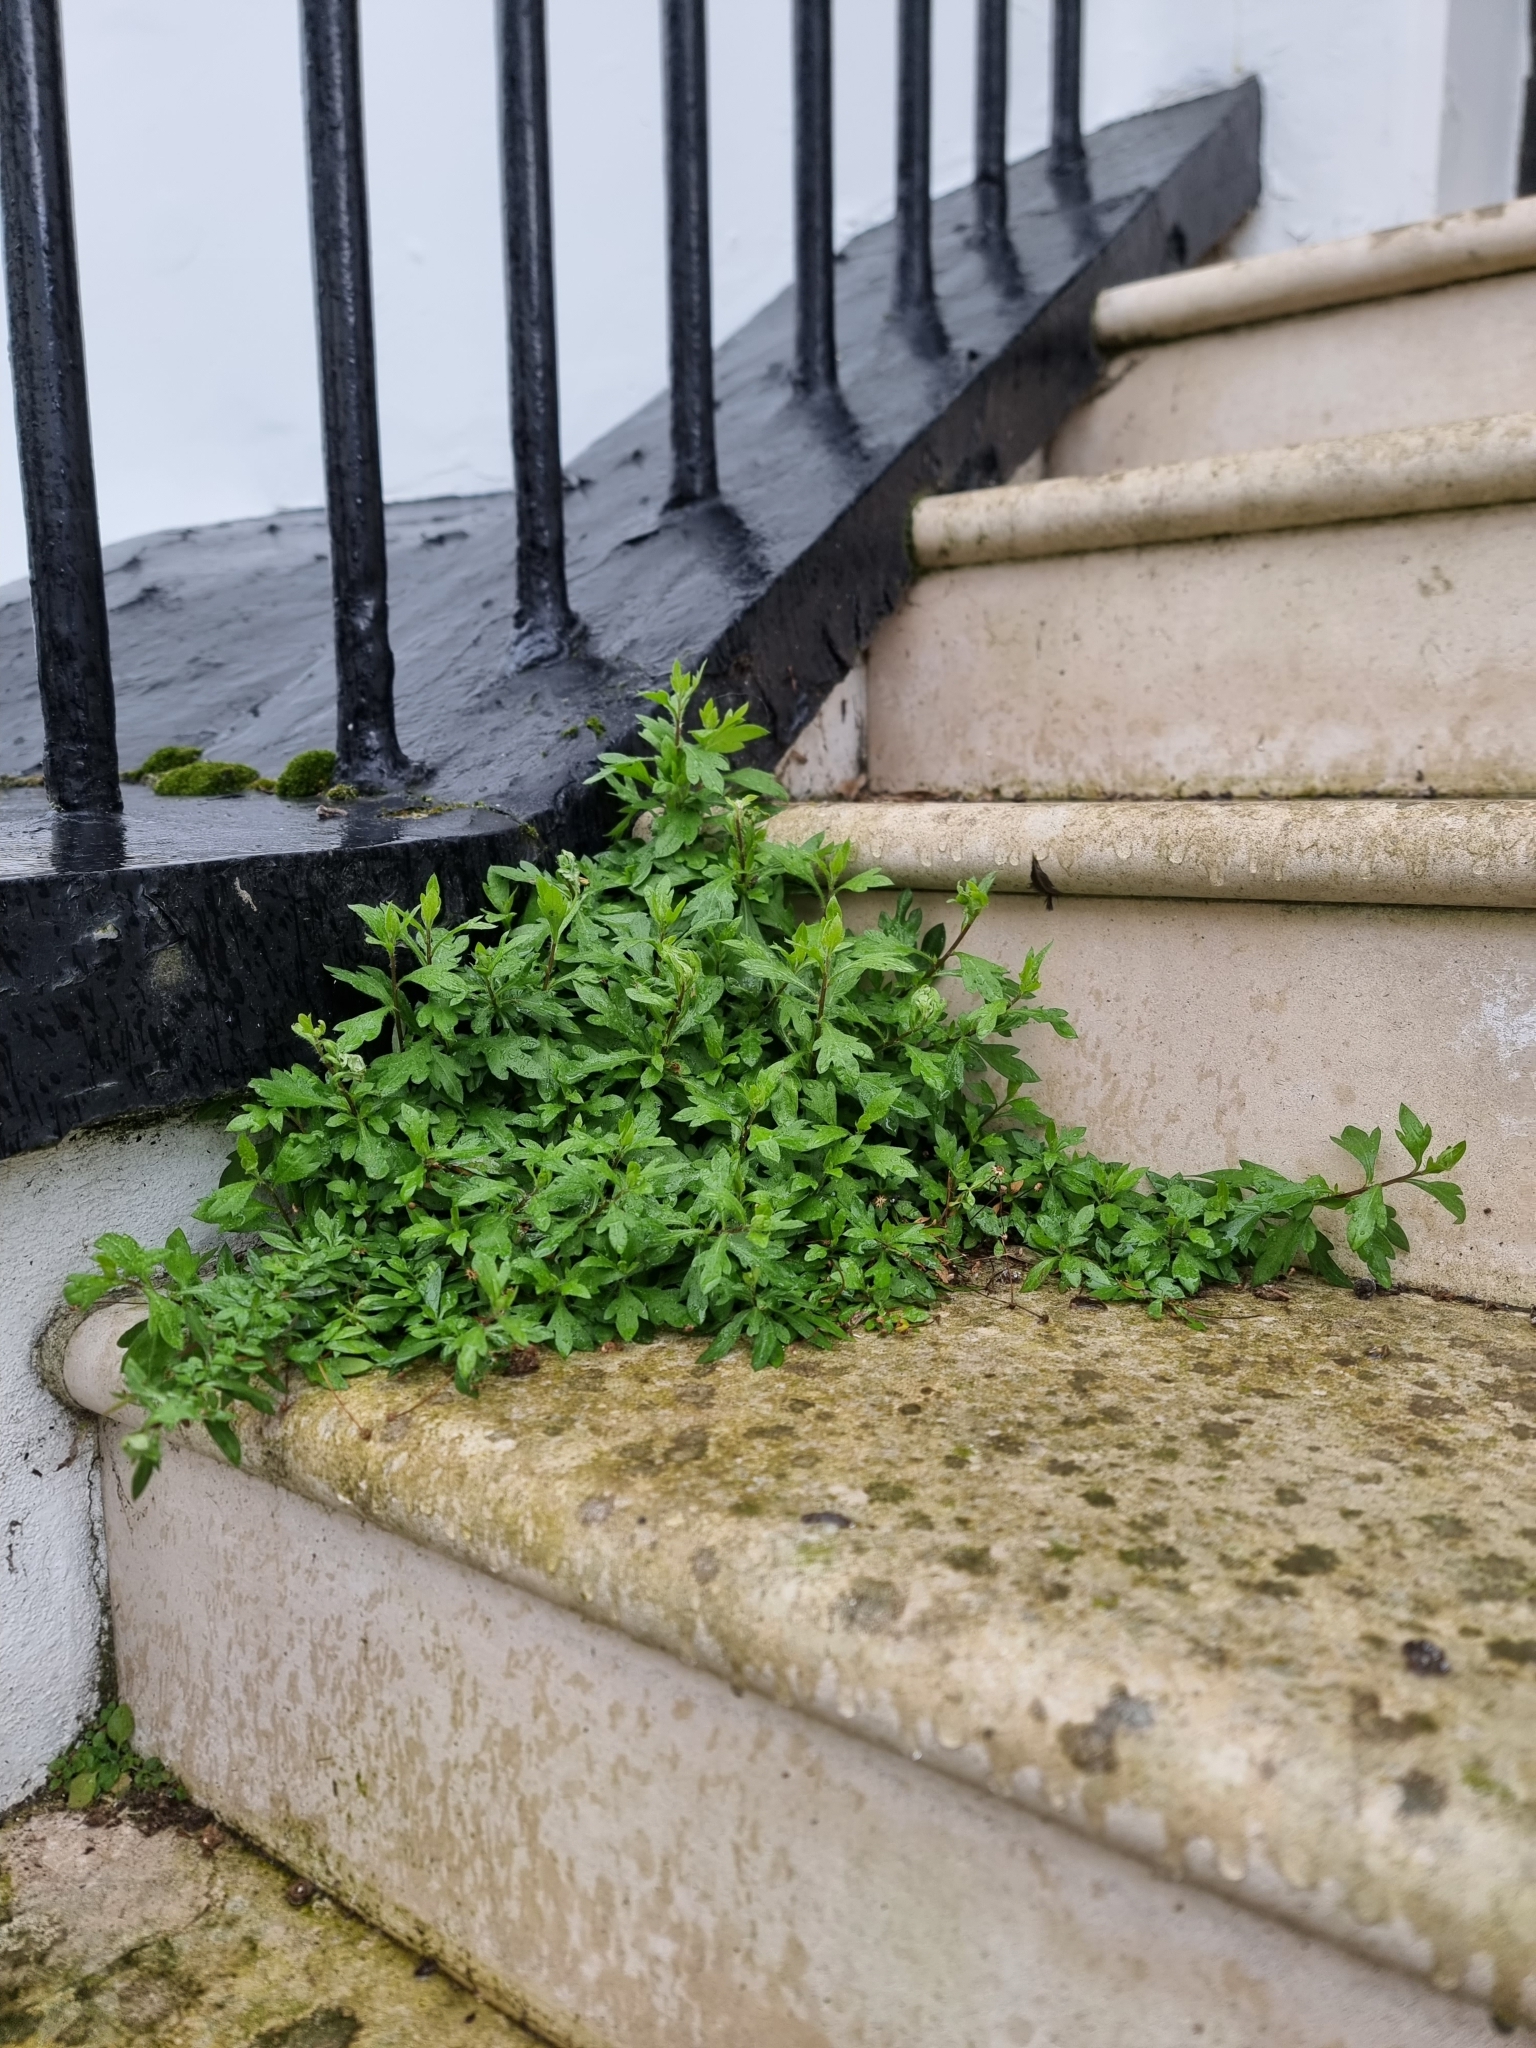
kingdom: Plantae
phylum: Tracheophyta
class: Magnoliopsida
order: Asterales
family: Asteraceae
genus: Erigeron
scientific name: Erigeron karvinskianus
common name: Mexican fleabane
